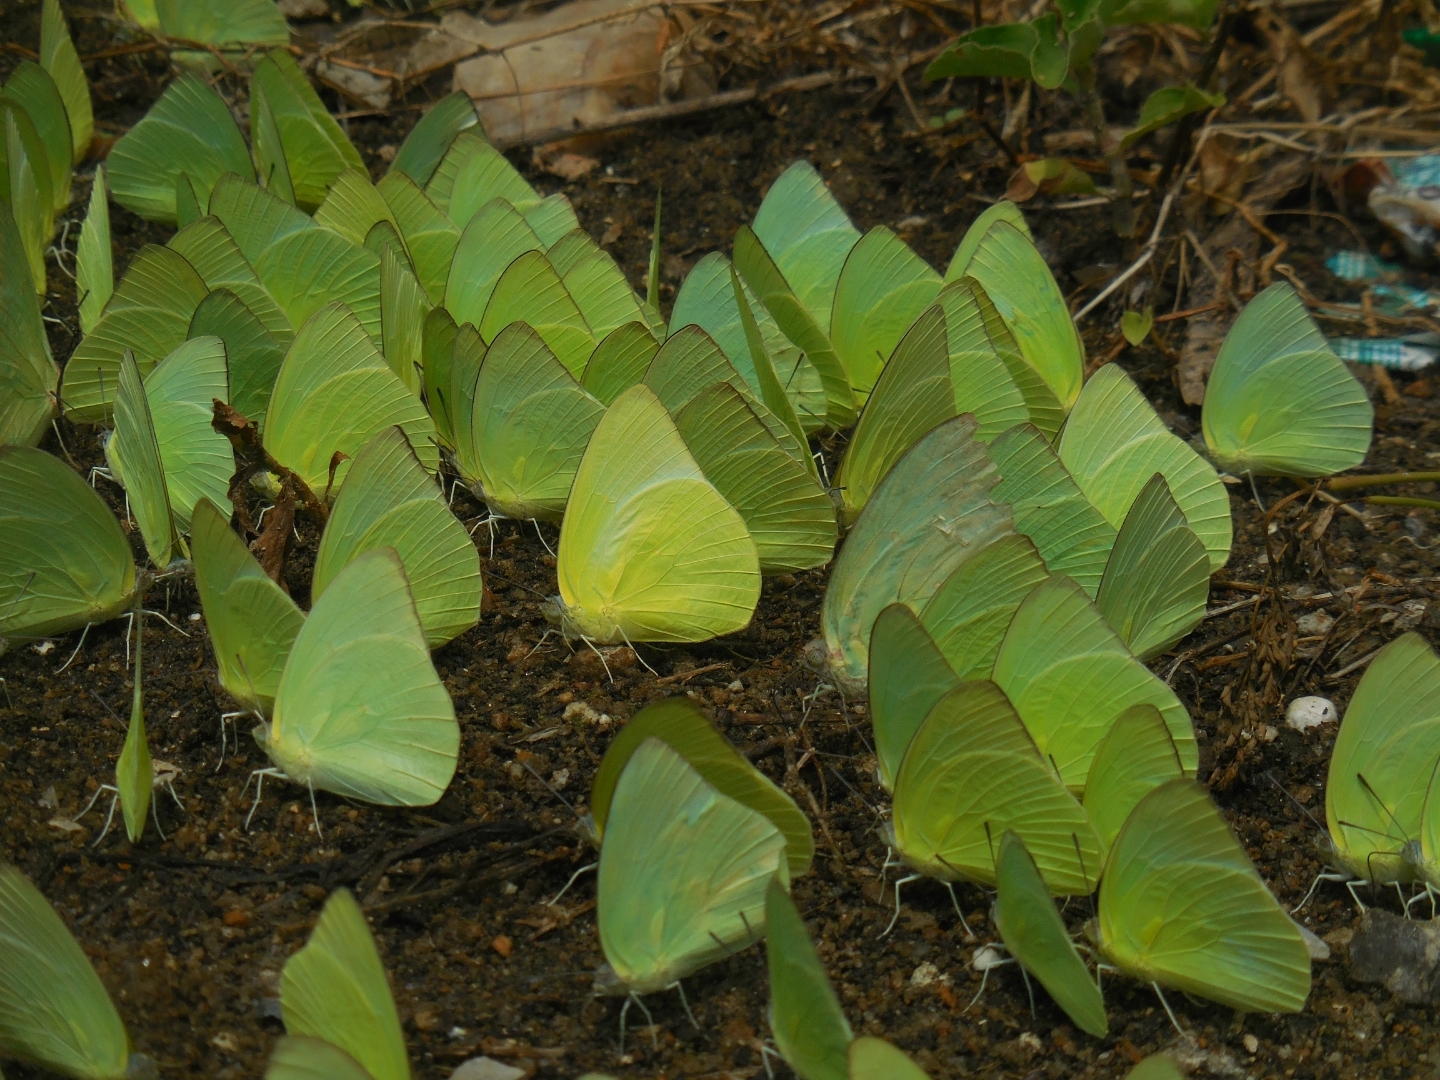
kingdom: Animalia
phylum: Arthropoda
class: Insecta
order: Lepidoptera
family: Pieridae
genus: Catopsilia
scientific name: Catopsilia pomona
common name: Common emigrant
